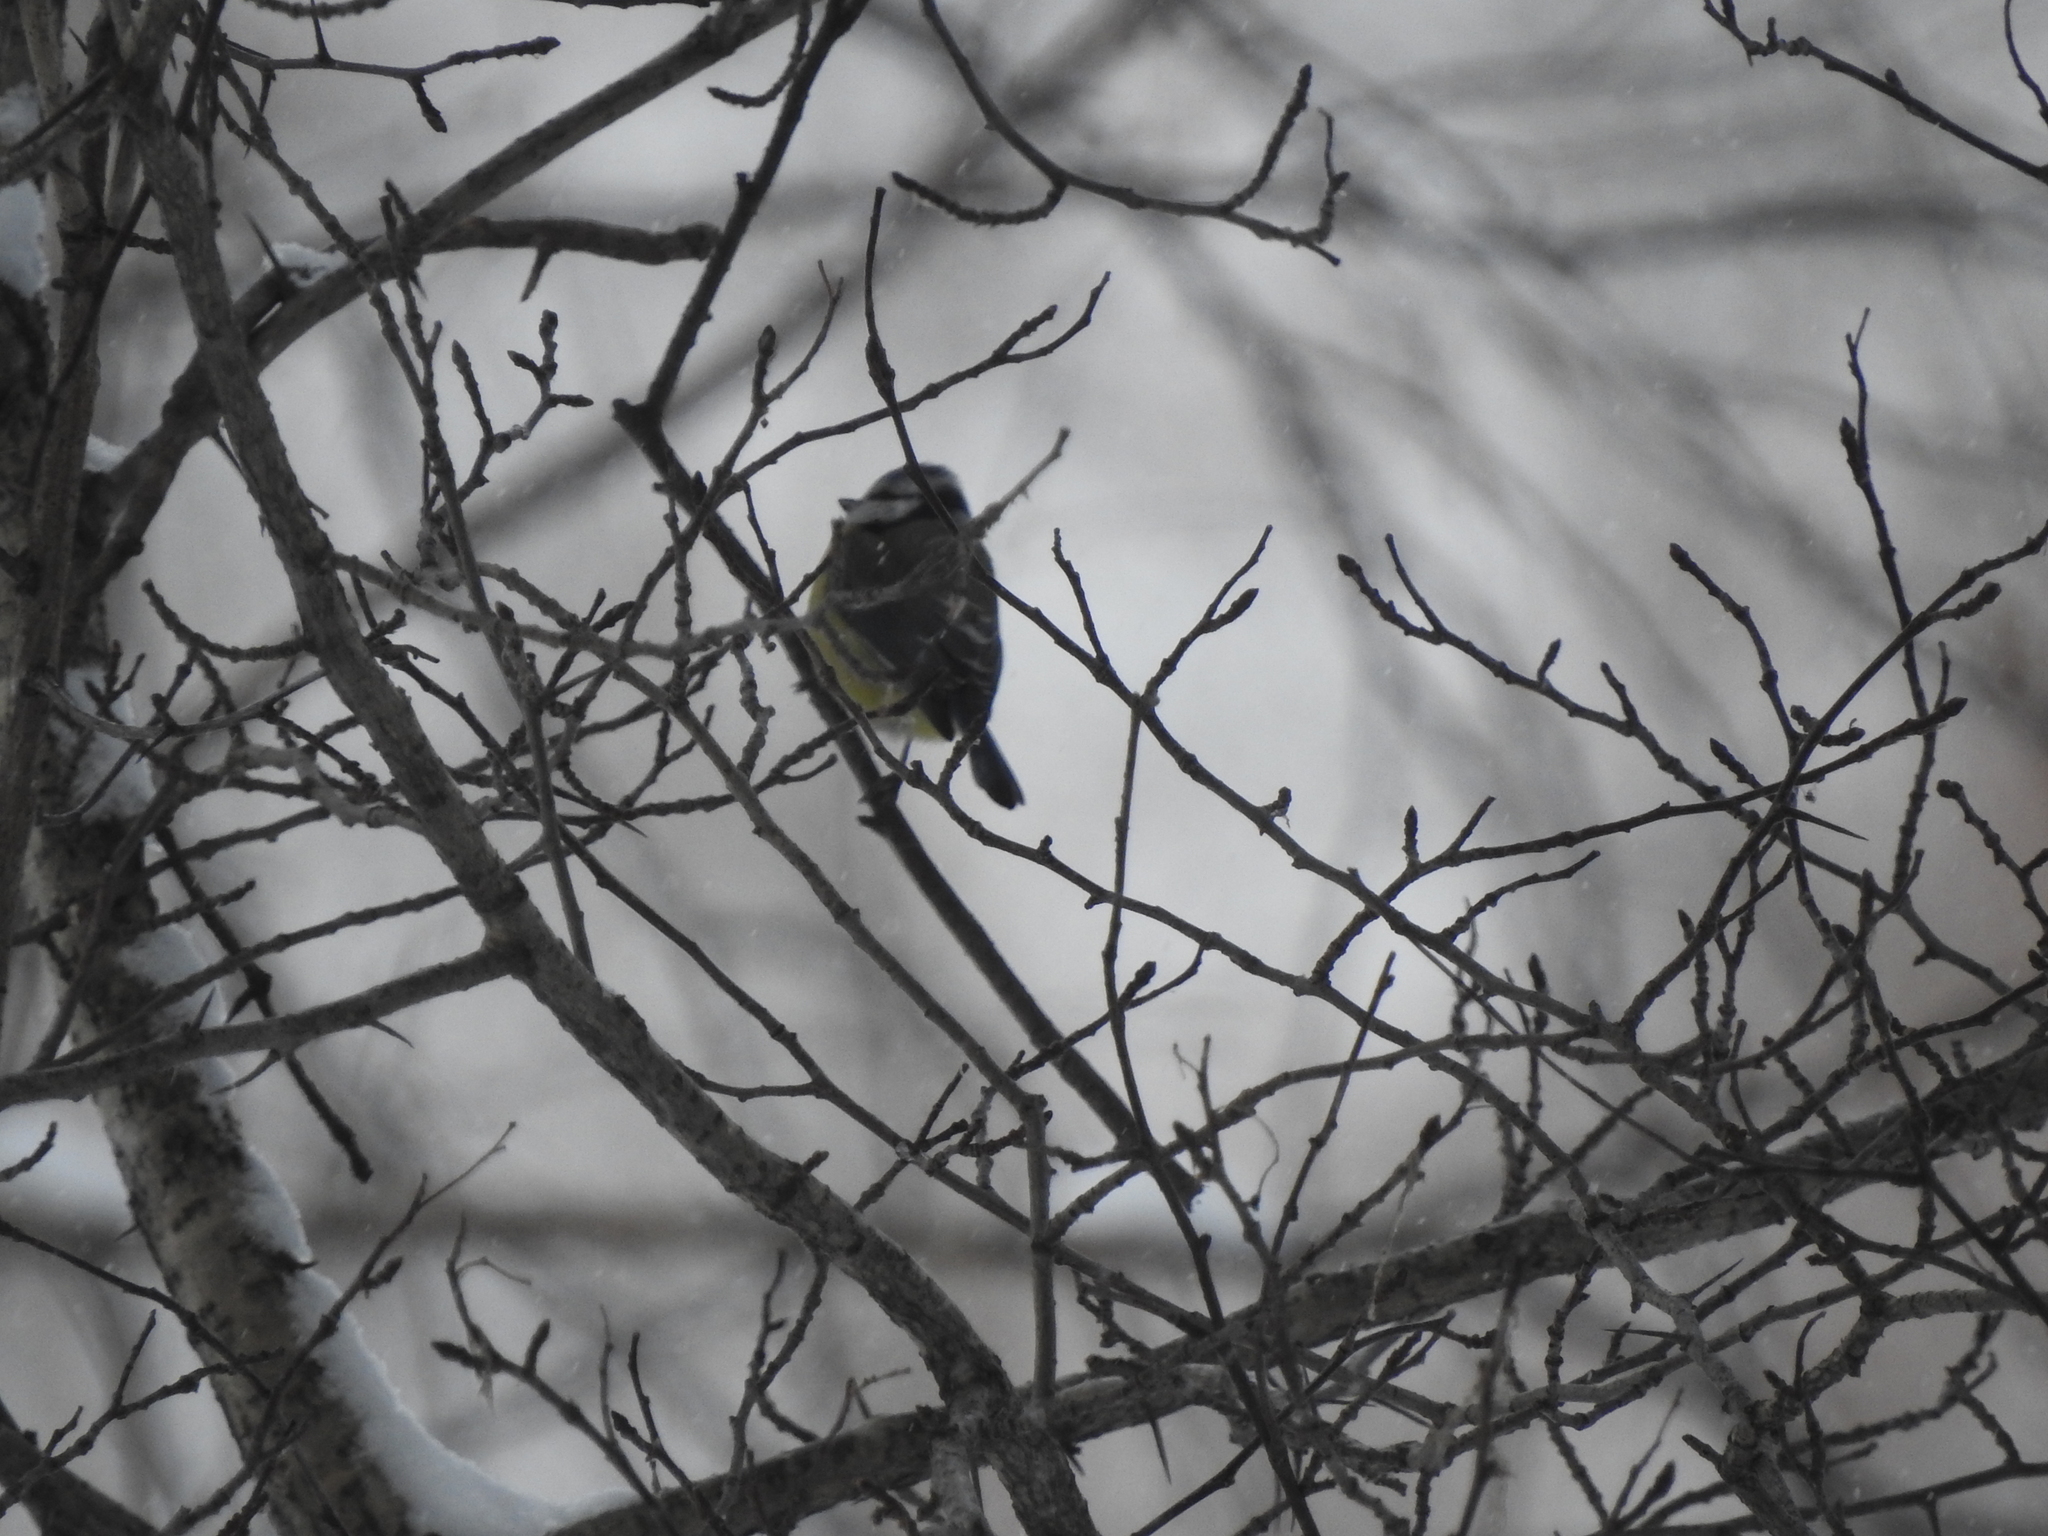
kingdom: Animalia
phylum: Chordata
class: Aves
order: Passeriformes
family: Paridae
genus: Cyanistes
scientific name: Cyanistes caeruleus
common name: Eurasian blue tit
